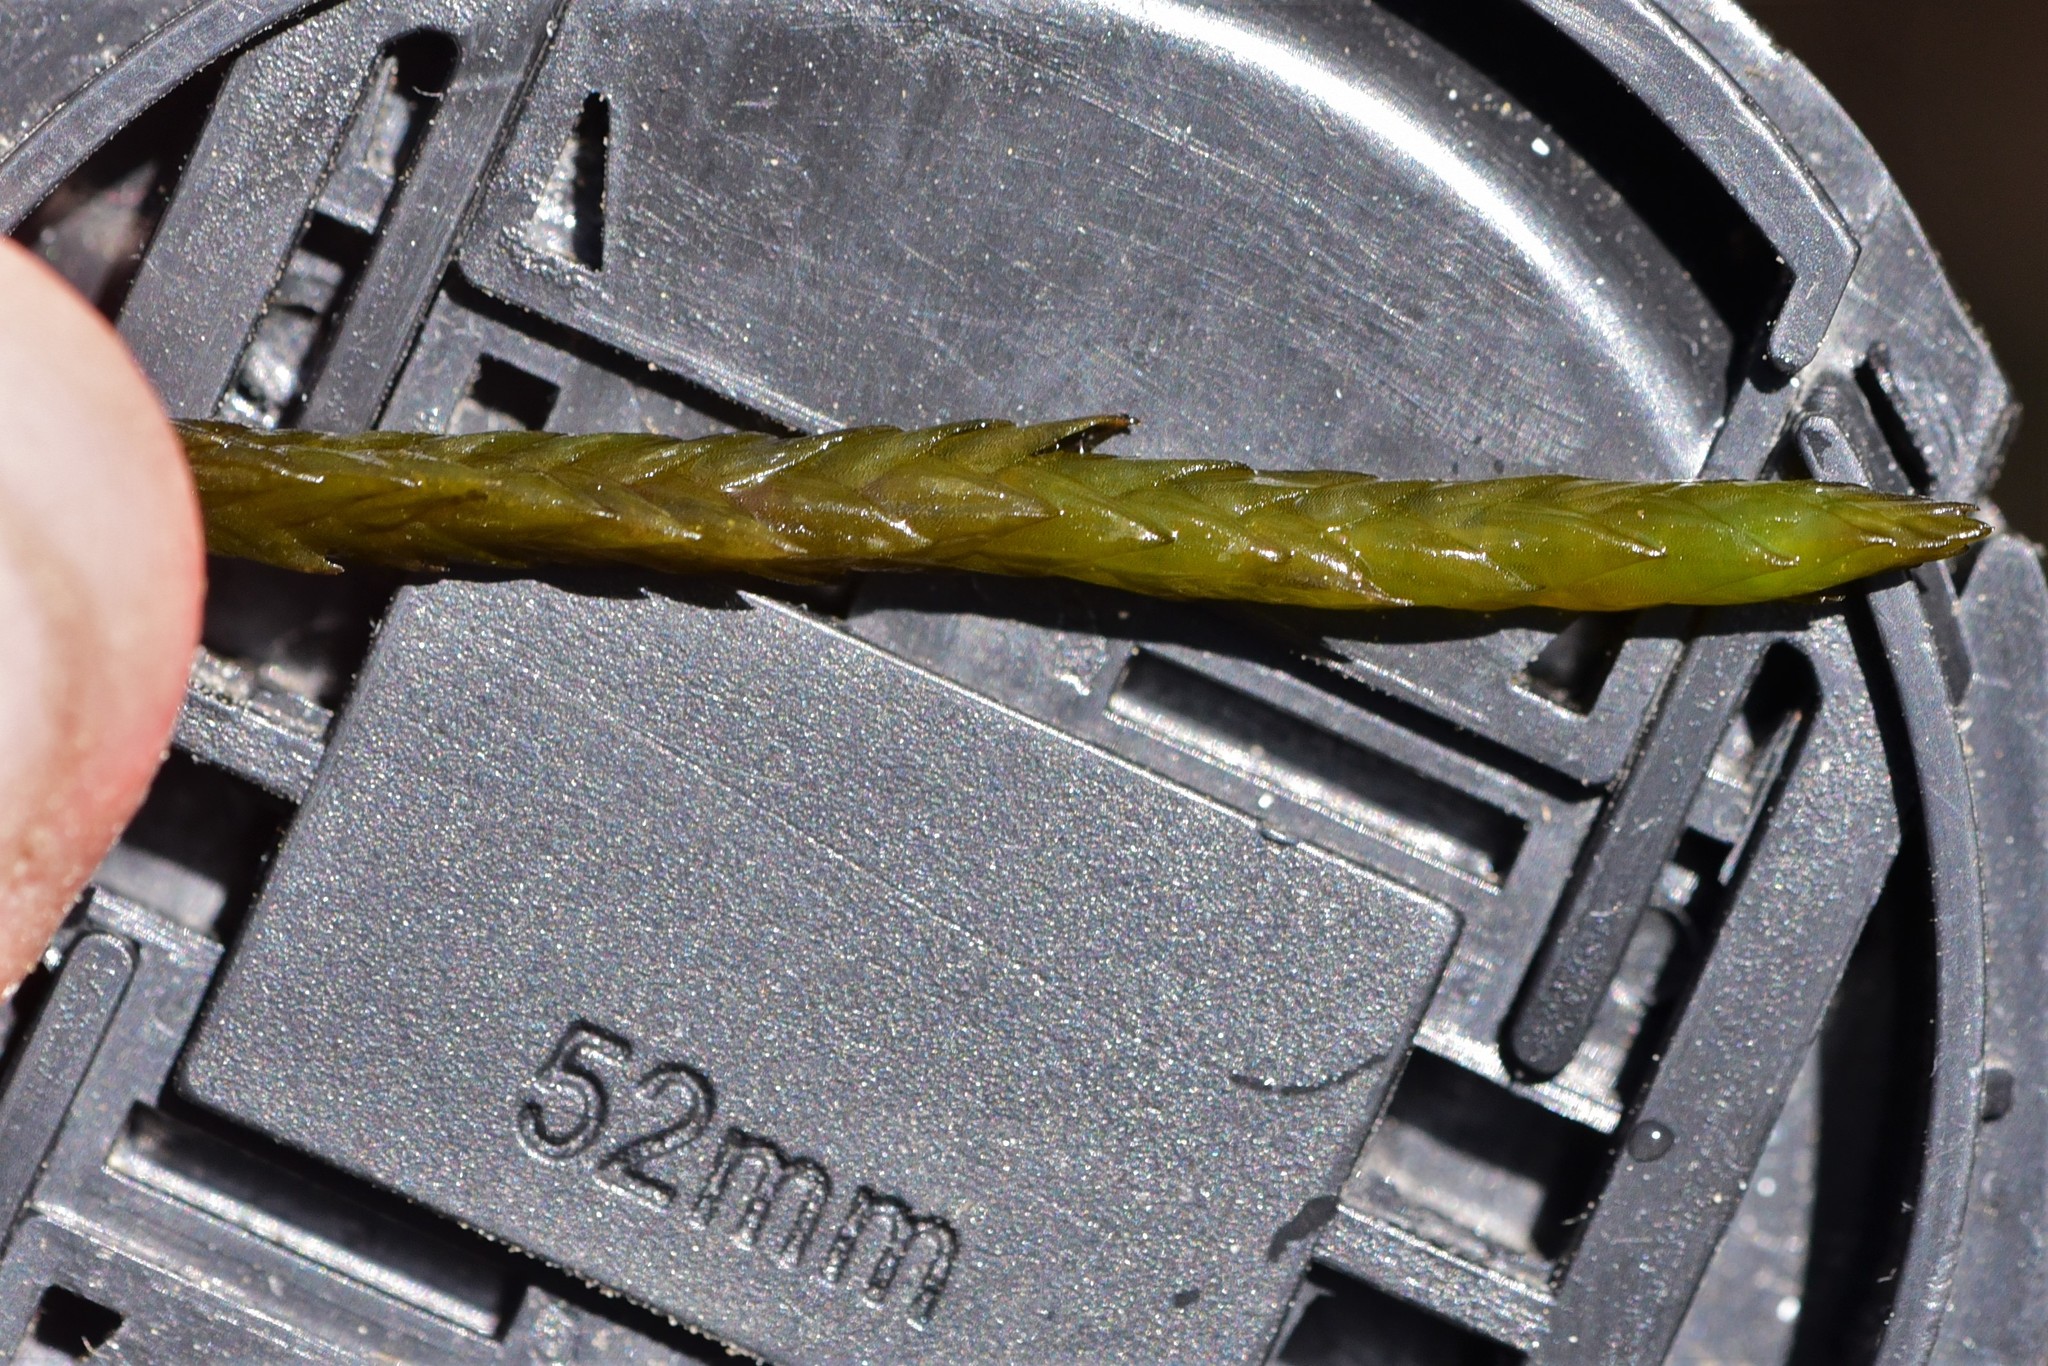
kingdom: Plantae
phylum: Bryophyta
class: Bryopsida
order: Hypnales
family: Fontinalaceae
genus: Fontinalis
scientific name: Fontinalis neomexicana
